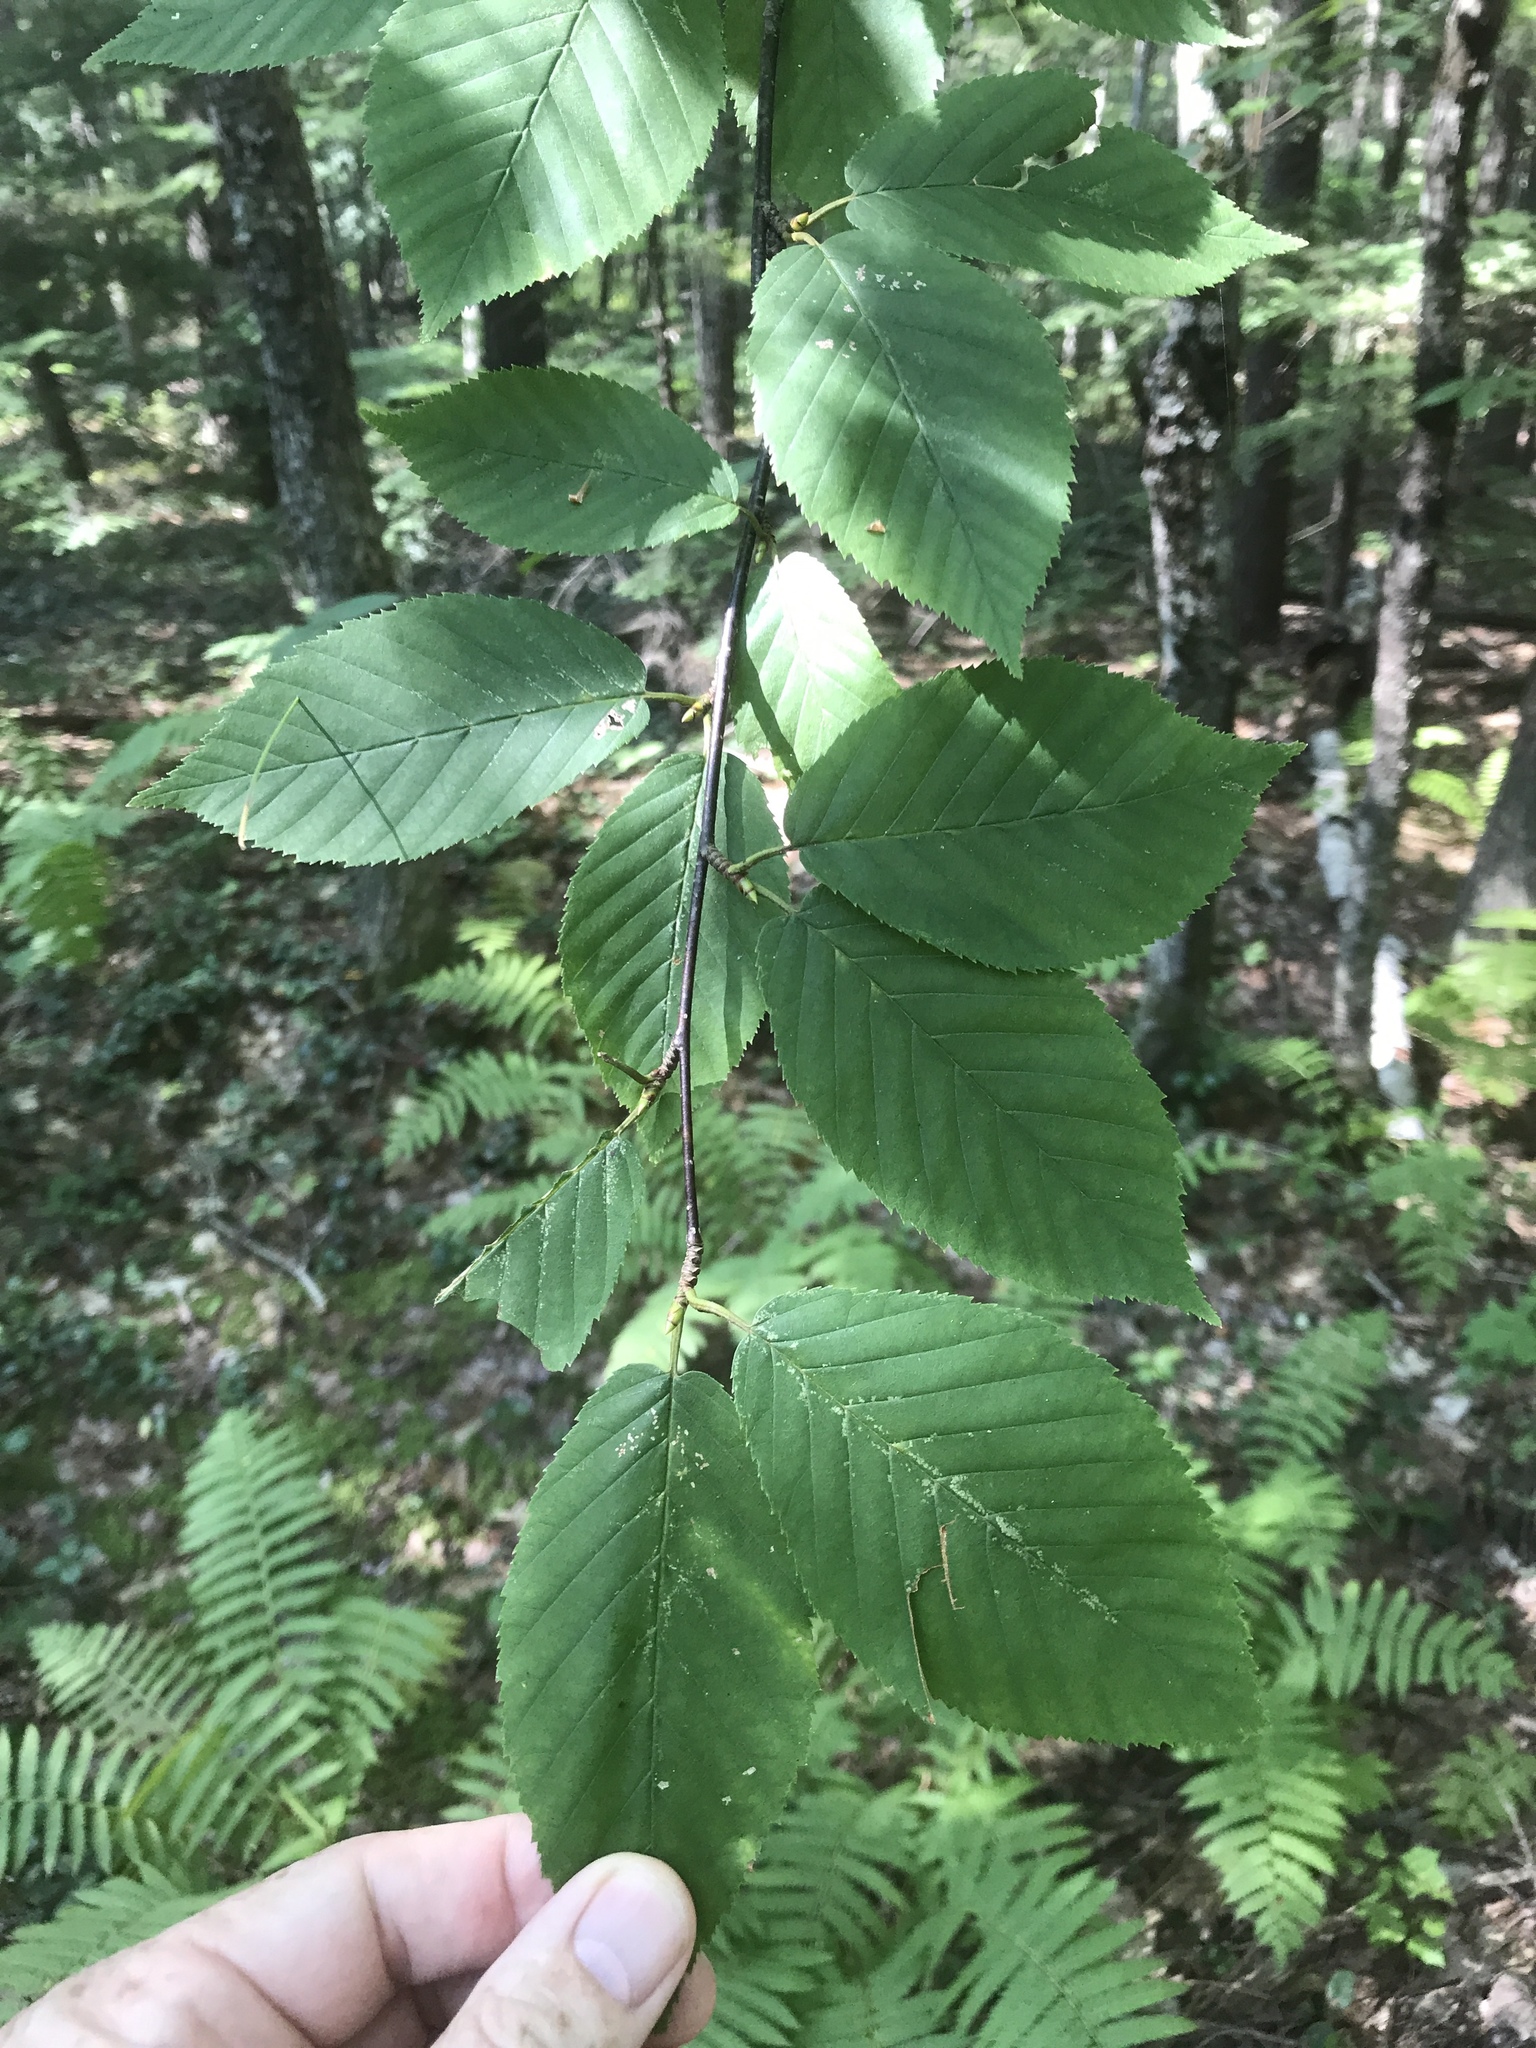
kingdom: Plantae
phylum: Tracheophyta
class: Magnoliopsida
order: Fagales
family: Betulaceae
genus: Betula
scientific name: Betula alleghaniensis
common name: Yellow birch
